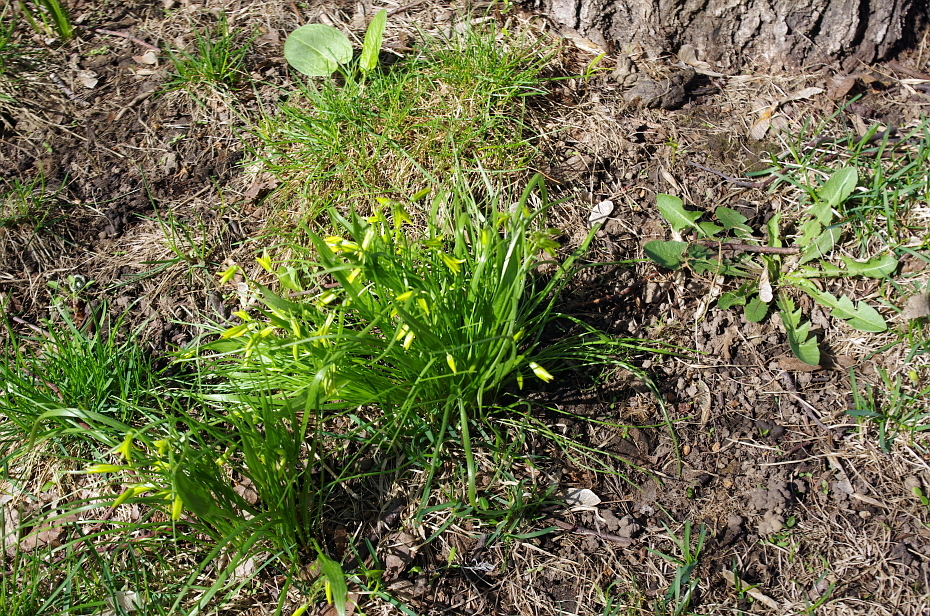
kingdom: Plantae
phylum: Tracheophyta
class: Liliopsida
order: Liliales
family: Liliaceae
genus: Gagea
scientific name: Gagea minima
